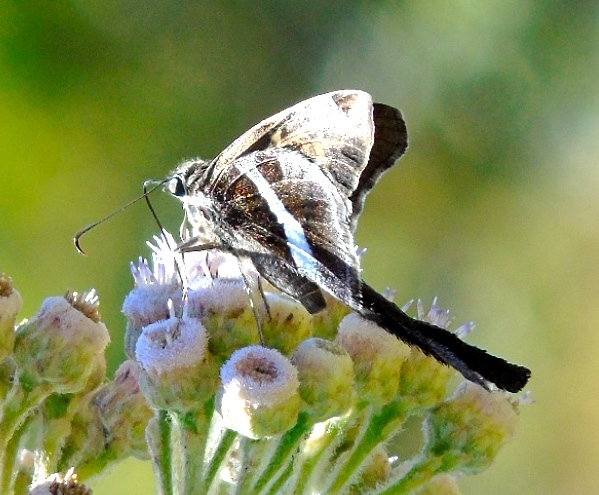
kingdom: Animalia
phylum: Arthropoda
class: Insecta
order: Lepidoptera
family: Hesperiidae
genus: Chioides
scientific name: Chioides catillus
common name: Silverbanded skipper
